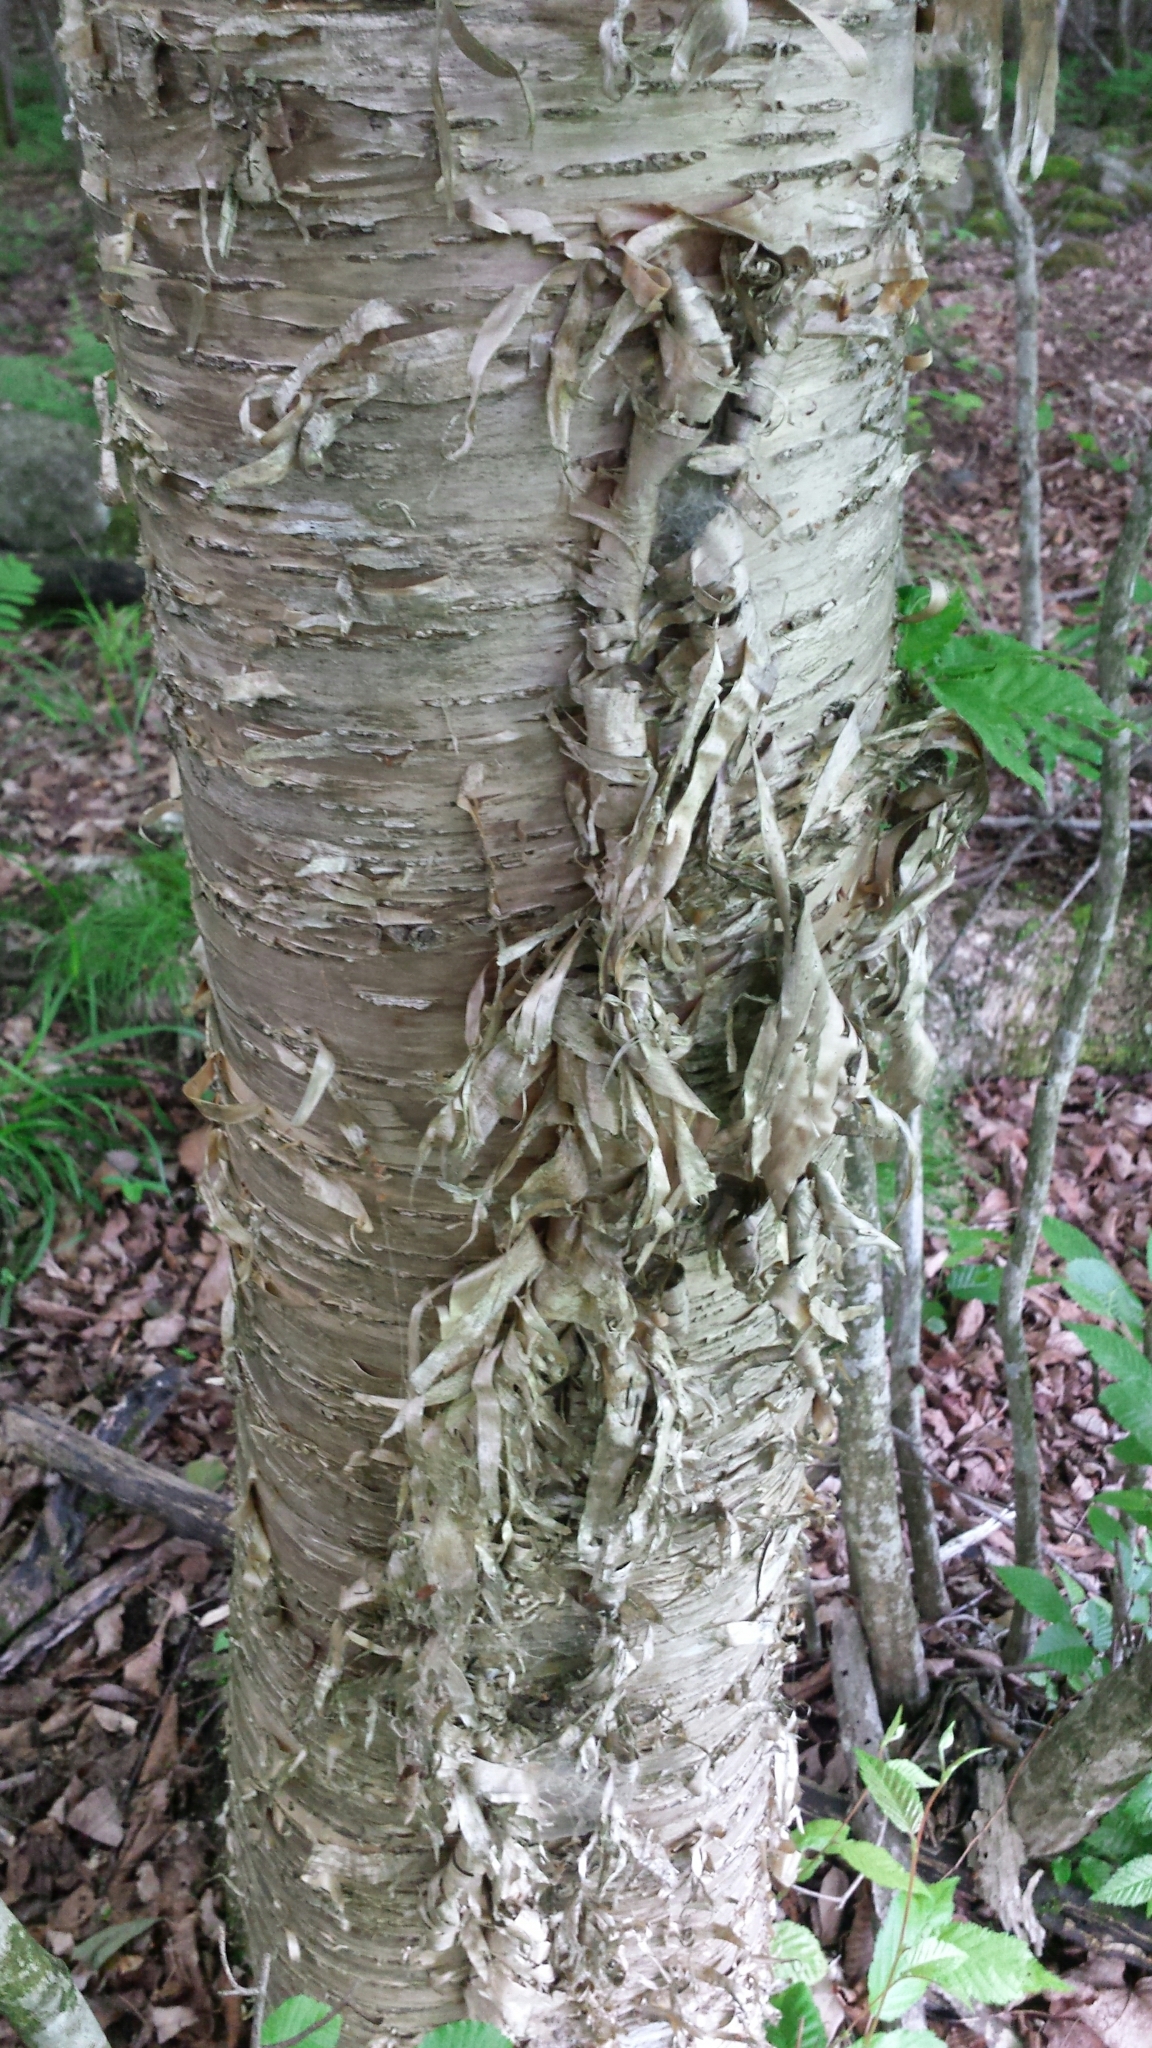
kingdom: Plantae
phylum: Tracheophyta
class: Magnoliopsida
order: Fagales
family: Betulaceae
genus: Betula
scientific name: Betula alleghaniensis
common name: Yellow birch
